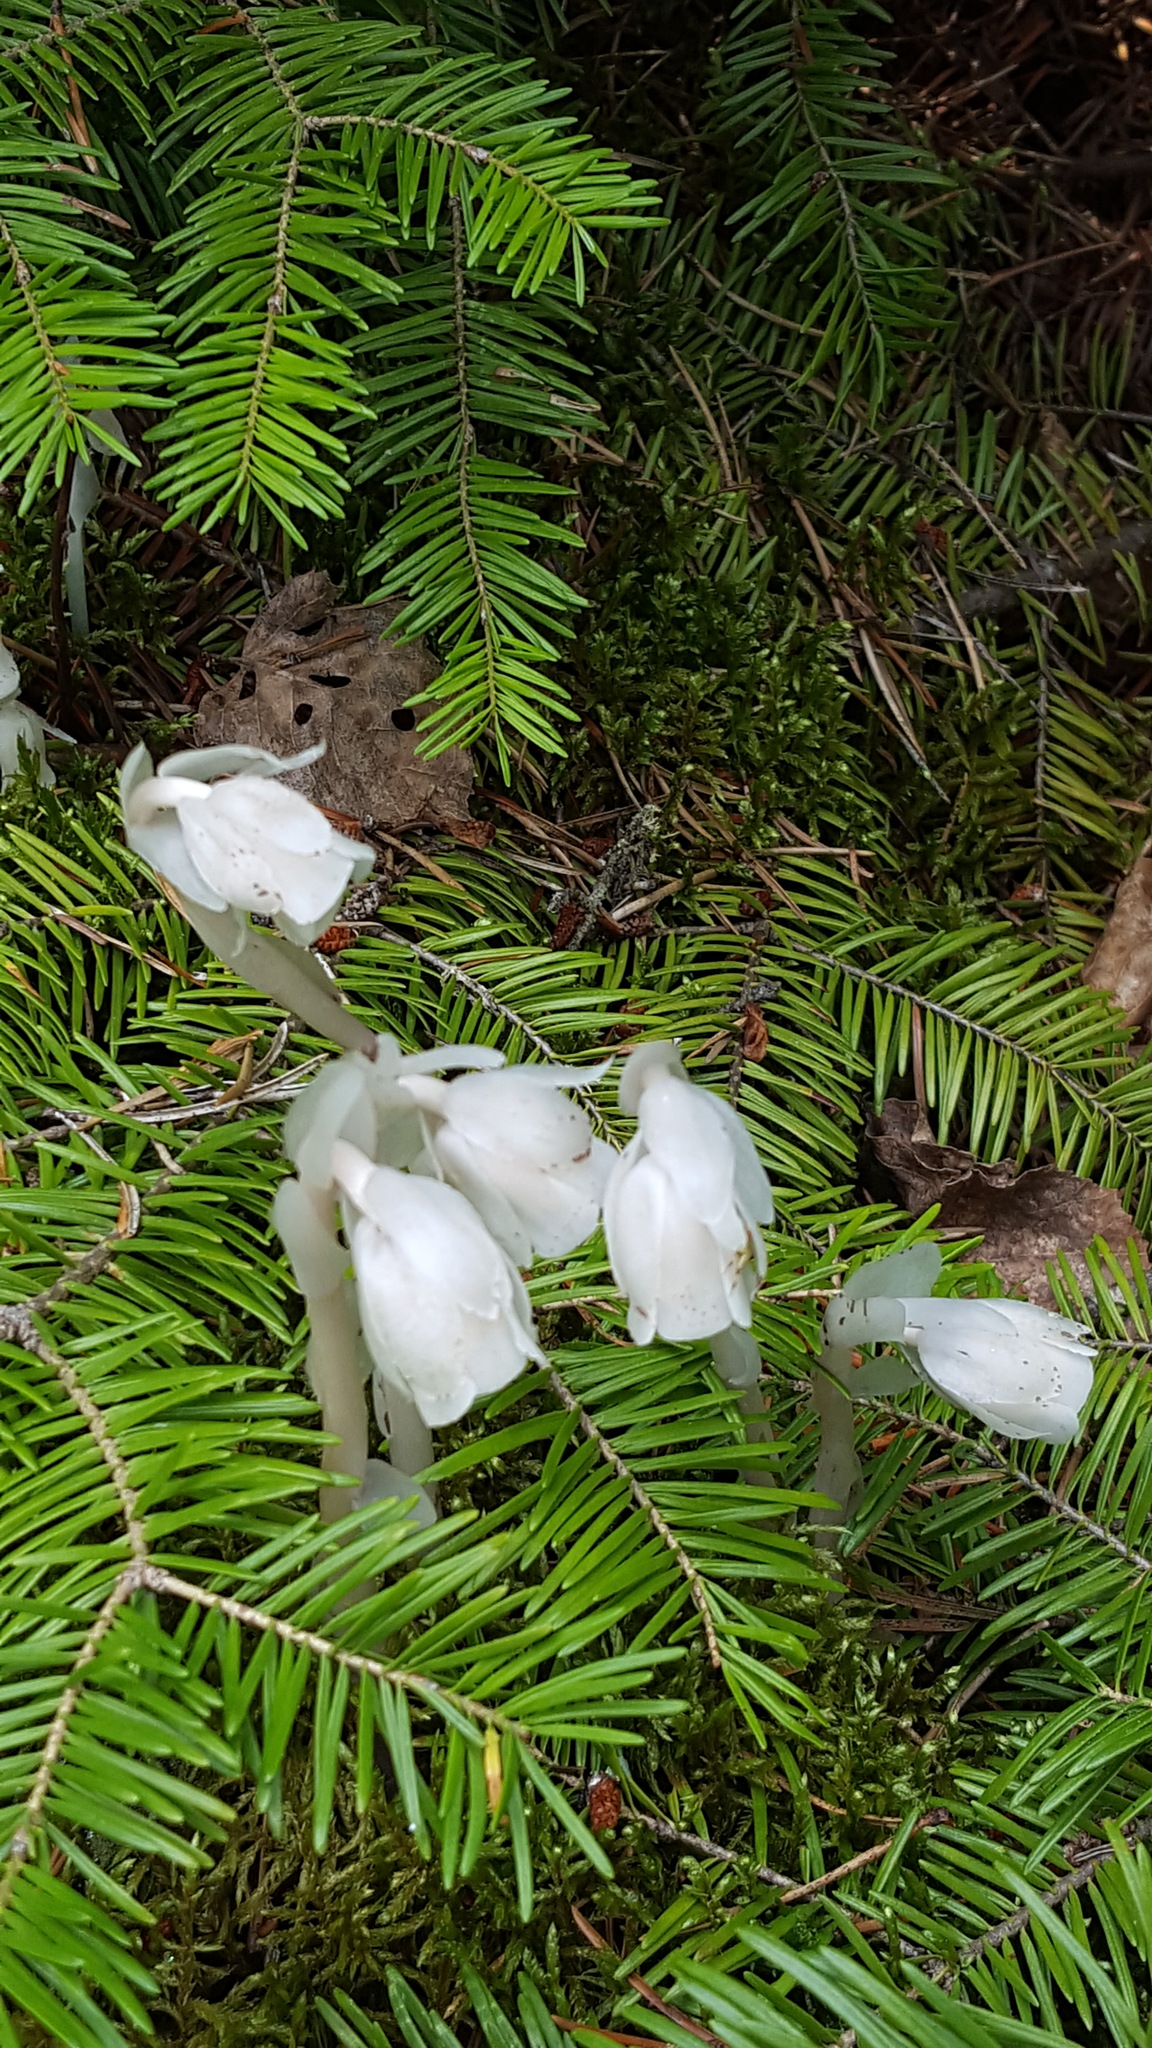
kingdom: Plantae
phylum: Tracheophyta
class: Magnoliopsida
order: Ericales
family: Ericaceae
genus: Monotropa
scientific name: Monotropa uniflora
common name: Convulsion root
